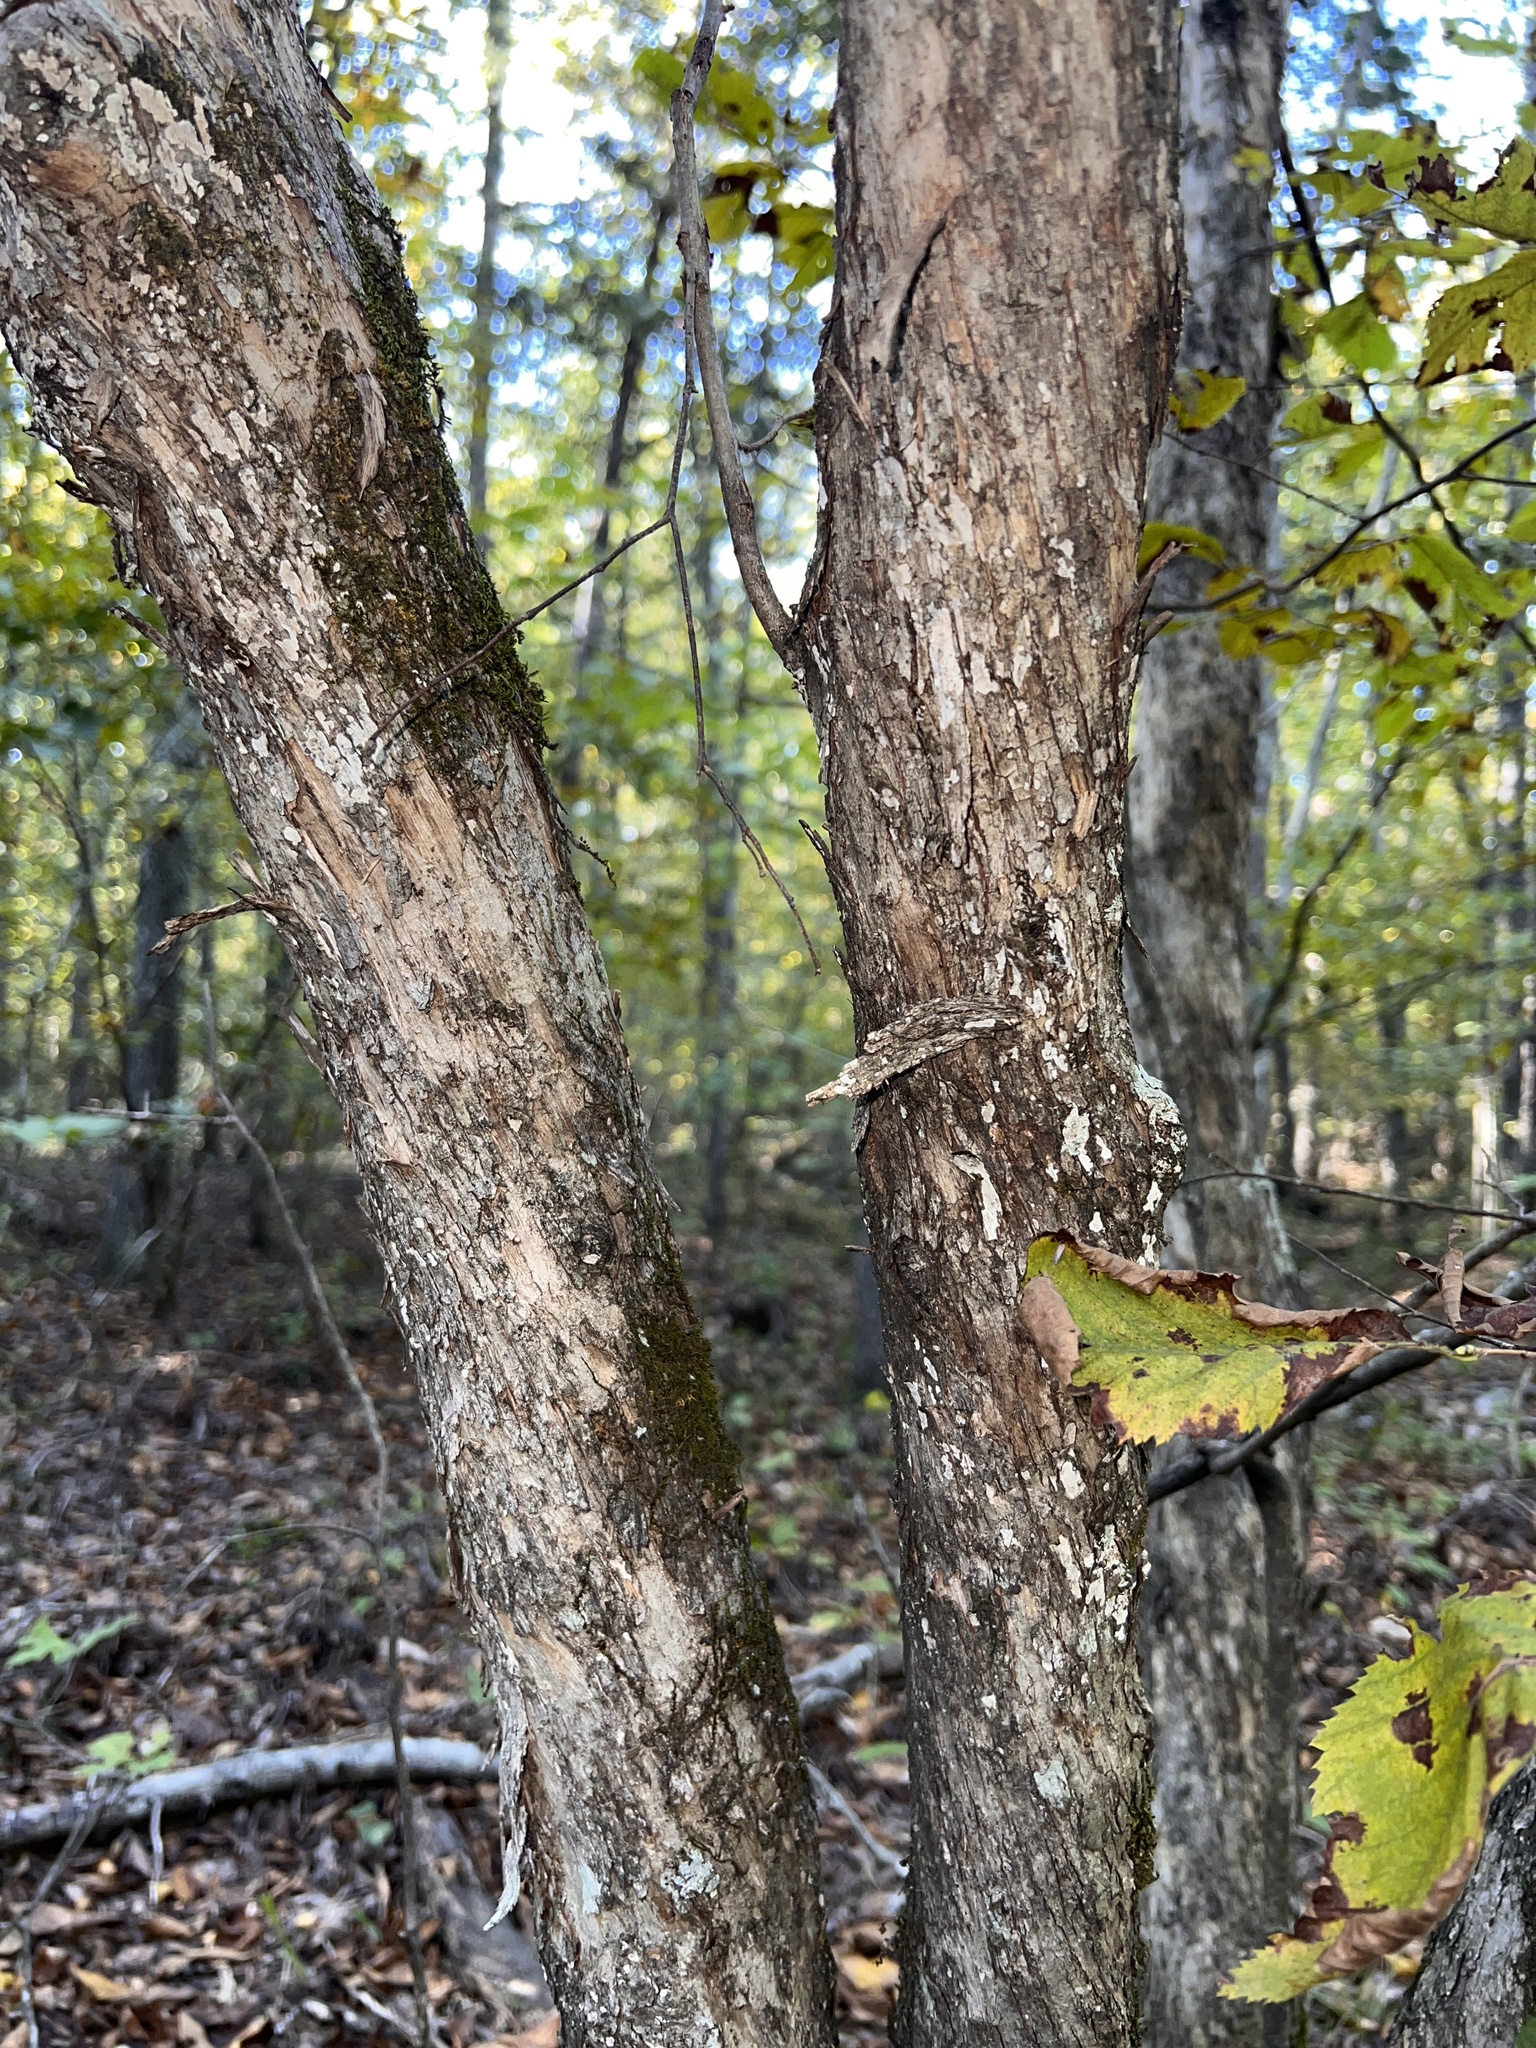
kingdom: Plantae
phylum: Tracheophyta
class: Magnoliopsida
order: Fagales
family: Betulaceae
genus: Ostrya
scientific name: Ostrya virginiana
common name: Ironwood
